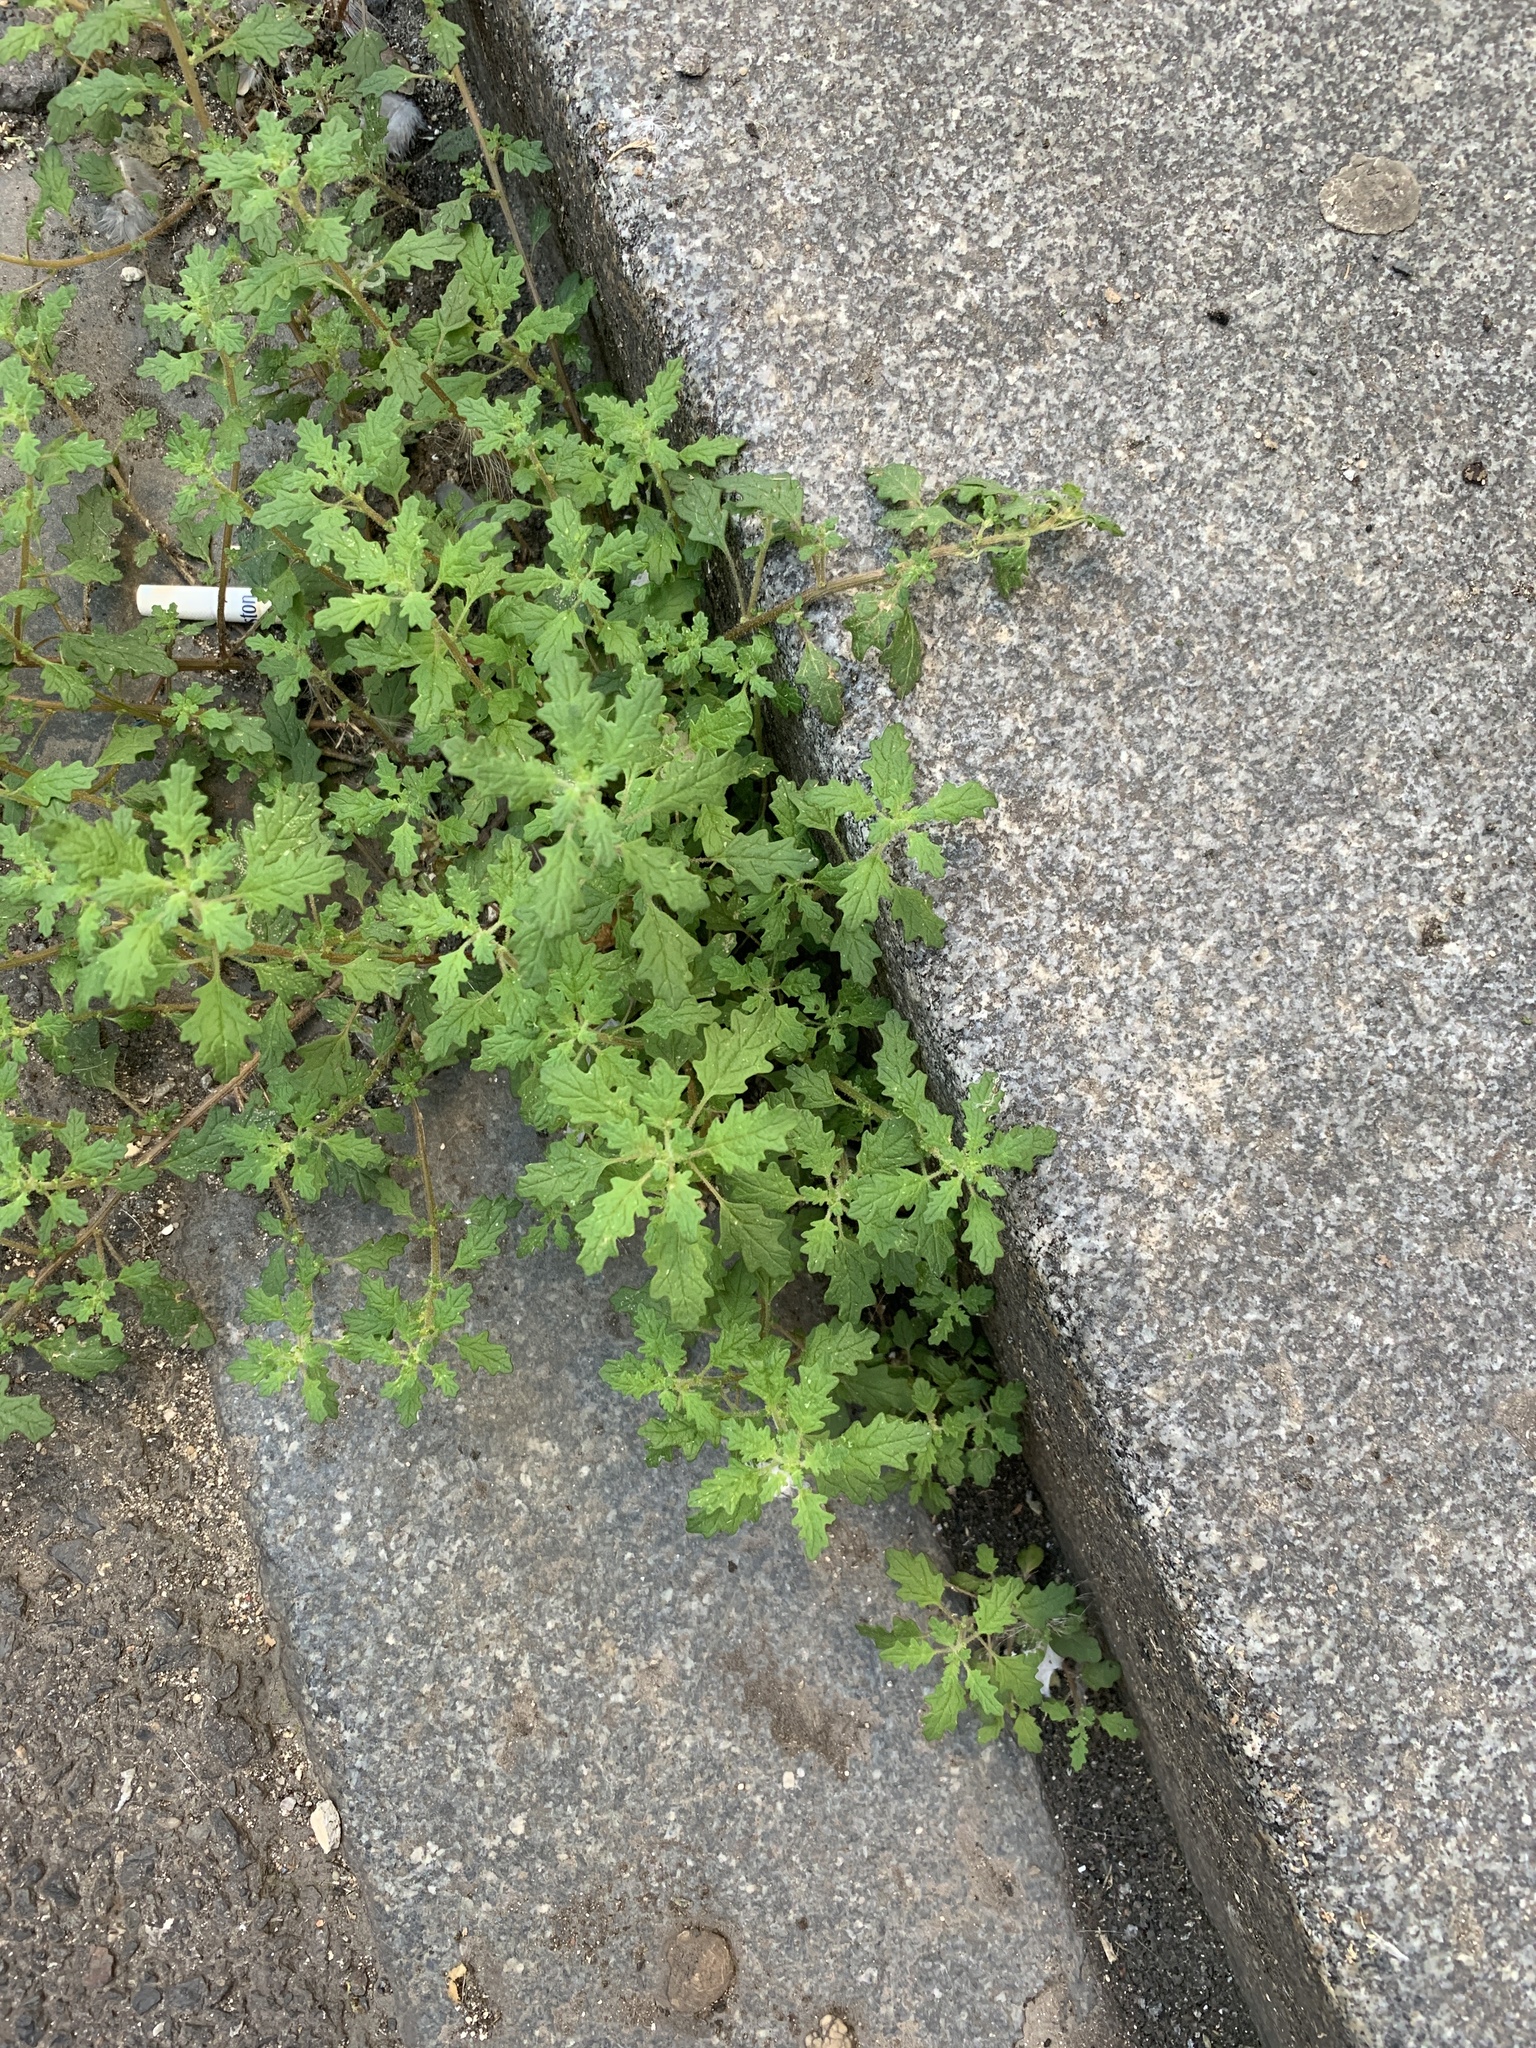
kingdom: Plantae
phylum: Tracheophyta
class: Magnoliopsida
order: Caryophyllales
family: Amaranthaceae
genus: Dysphania
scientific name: Dysphania pumilio
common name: Clammy goosefoot
